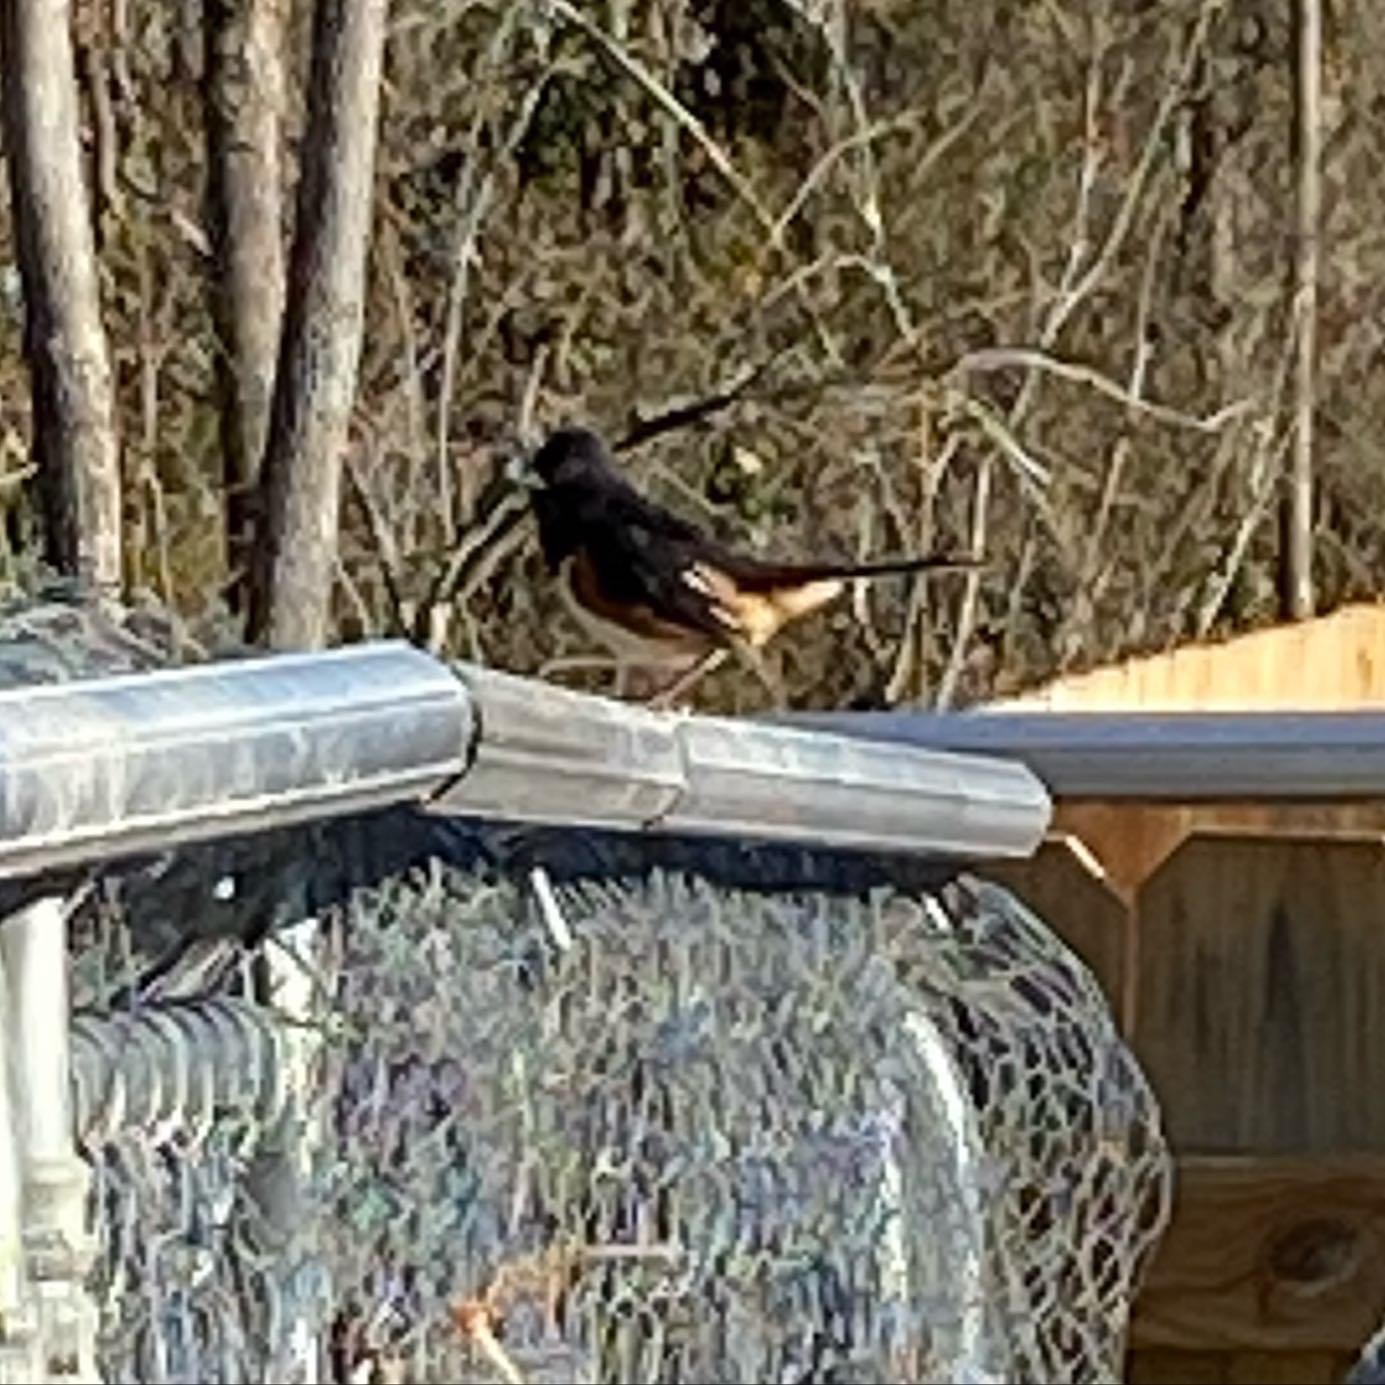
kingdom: Animalia
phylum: Chordata
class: Aves
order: Passeriformes
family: Passerellidae
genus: Pipilo
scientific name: Pipilo erythrophthalmus
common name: Eastern towhee
